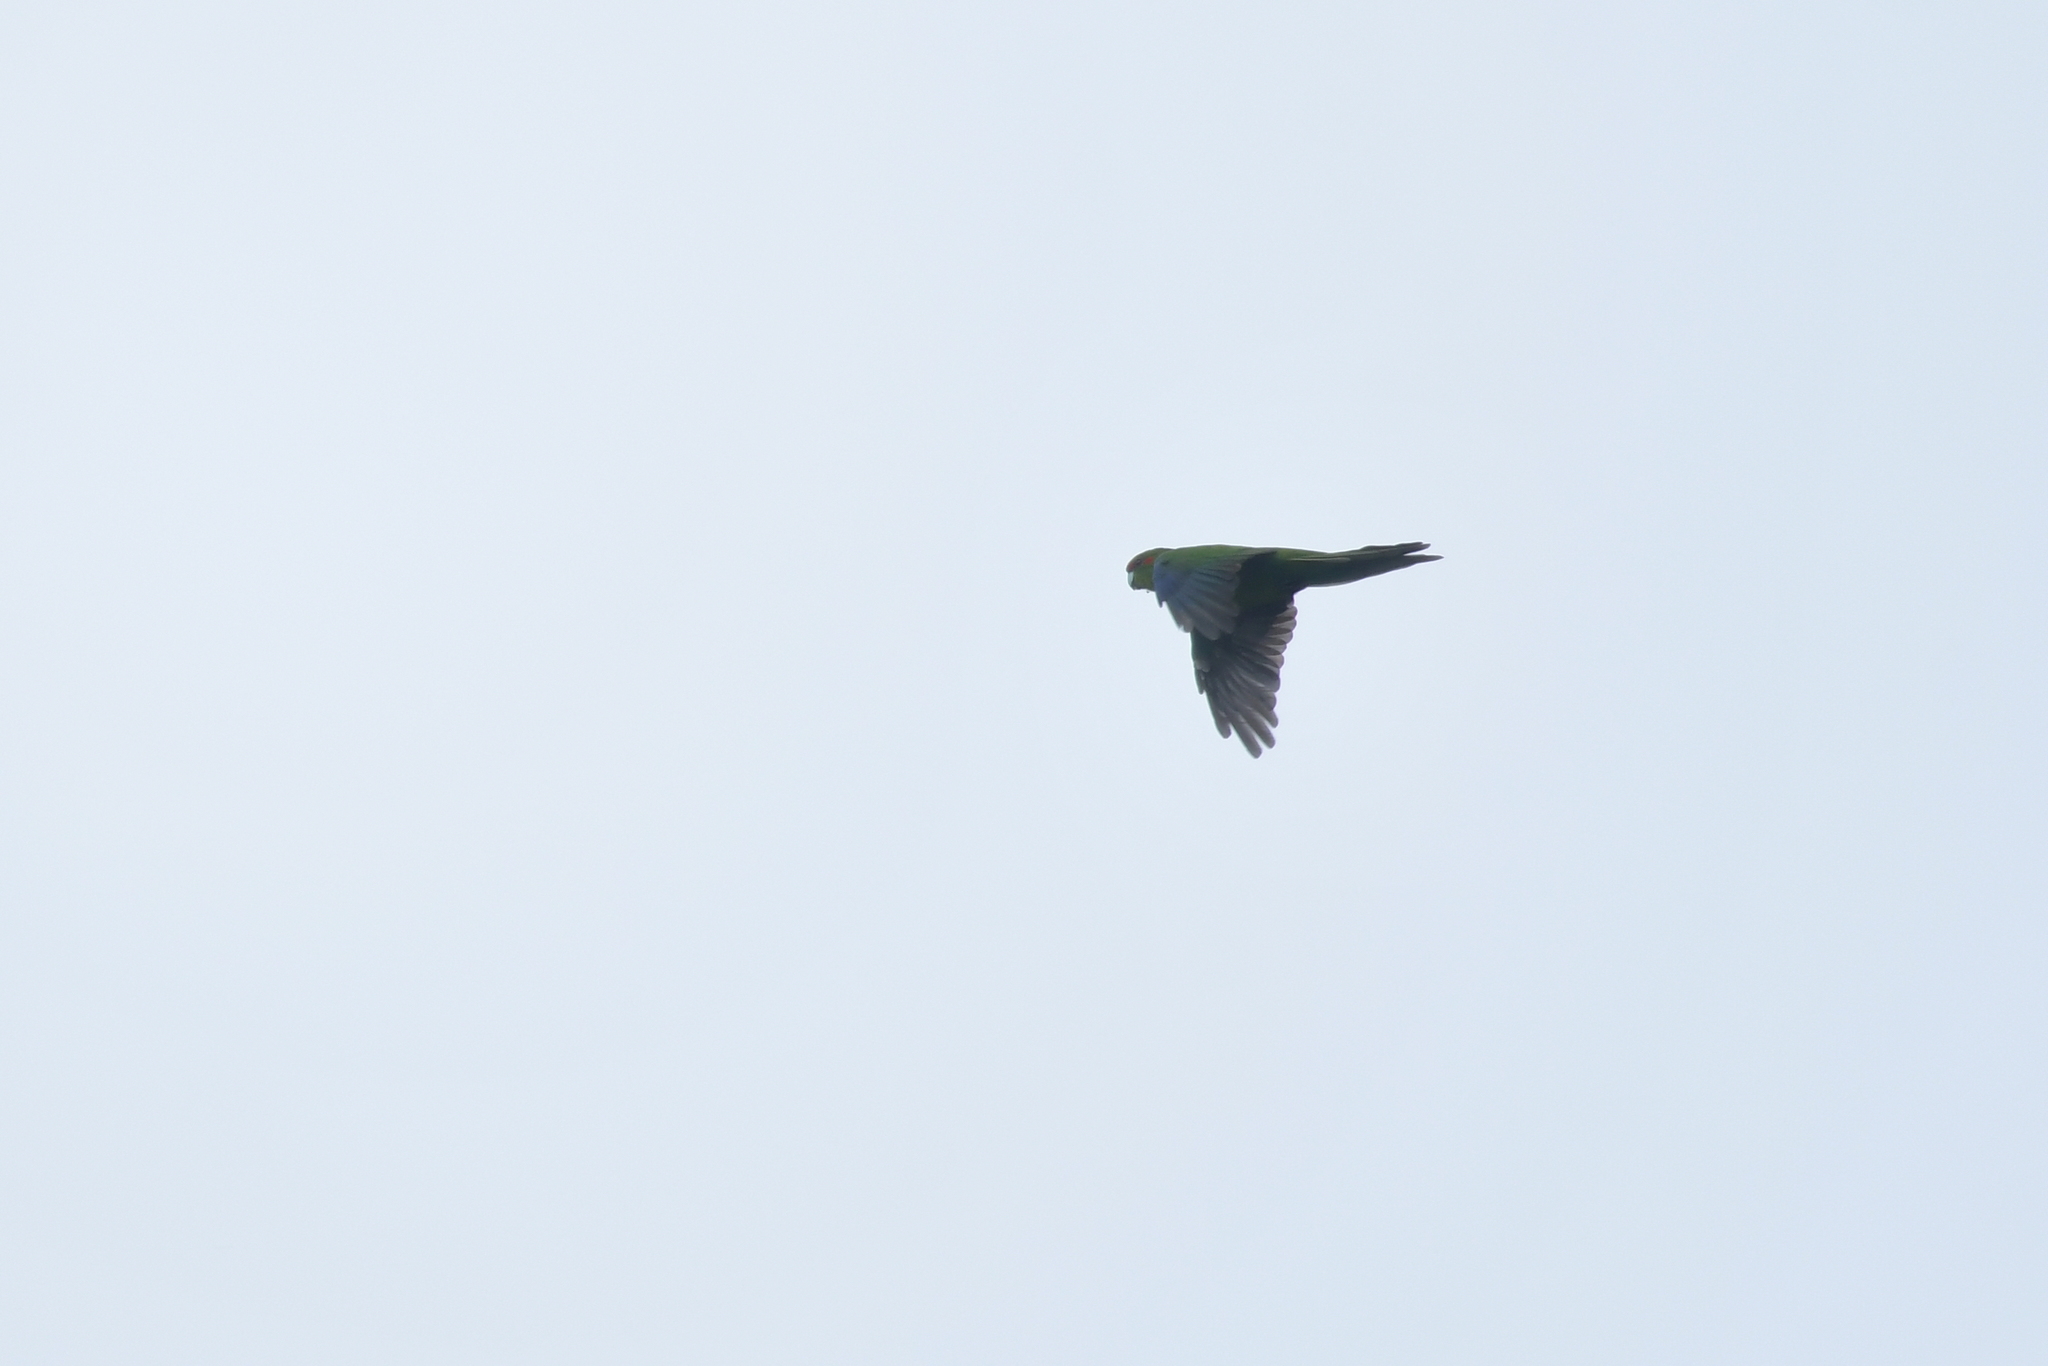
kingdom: Animalia
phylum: Chordata
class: Aves
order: Psittaciformes
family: Psittacidae
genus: Cyanoramphus
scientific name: Cyanoramphus novaezelandiae
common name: Red-fronted parakeet
